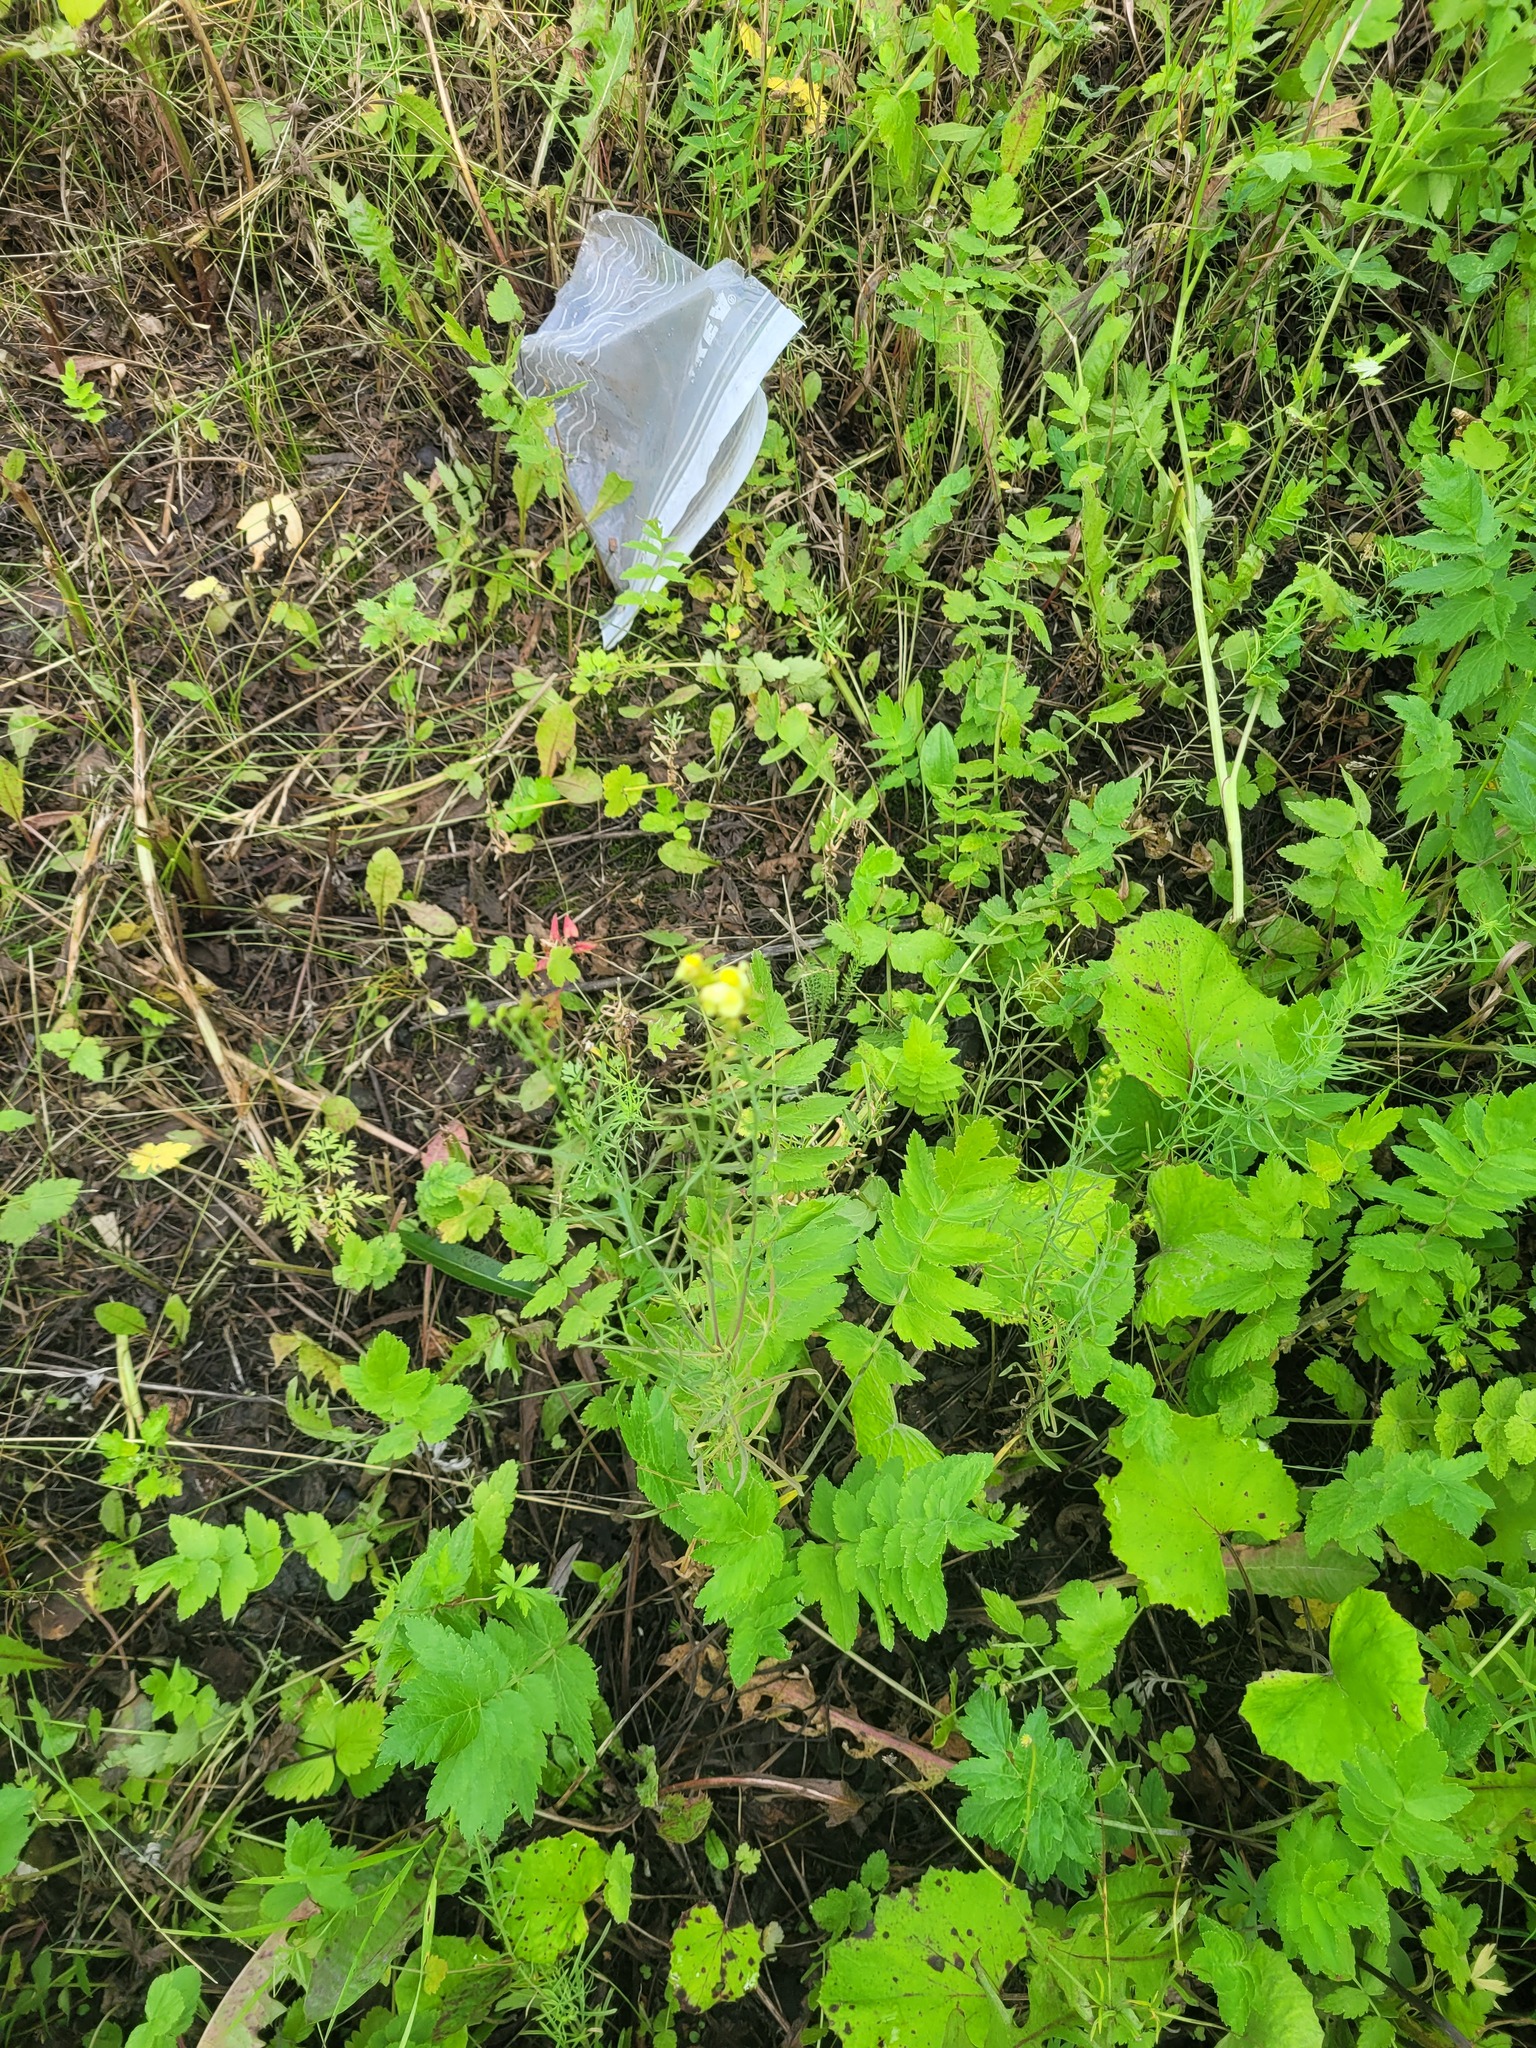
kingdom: Plantae
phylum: Tracheophyta
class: Magnoliopsida
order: Lamiales
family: Plantaginaceae
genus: Linaria
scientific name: Linaria vulgaris
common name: Butter and eggs
